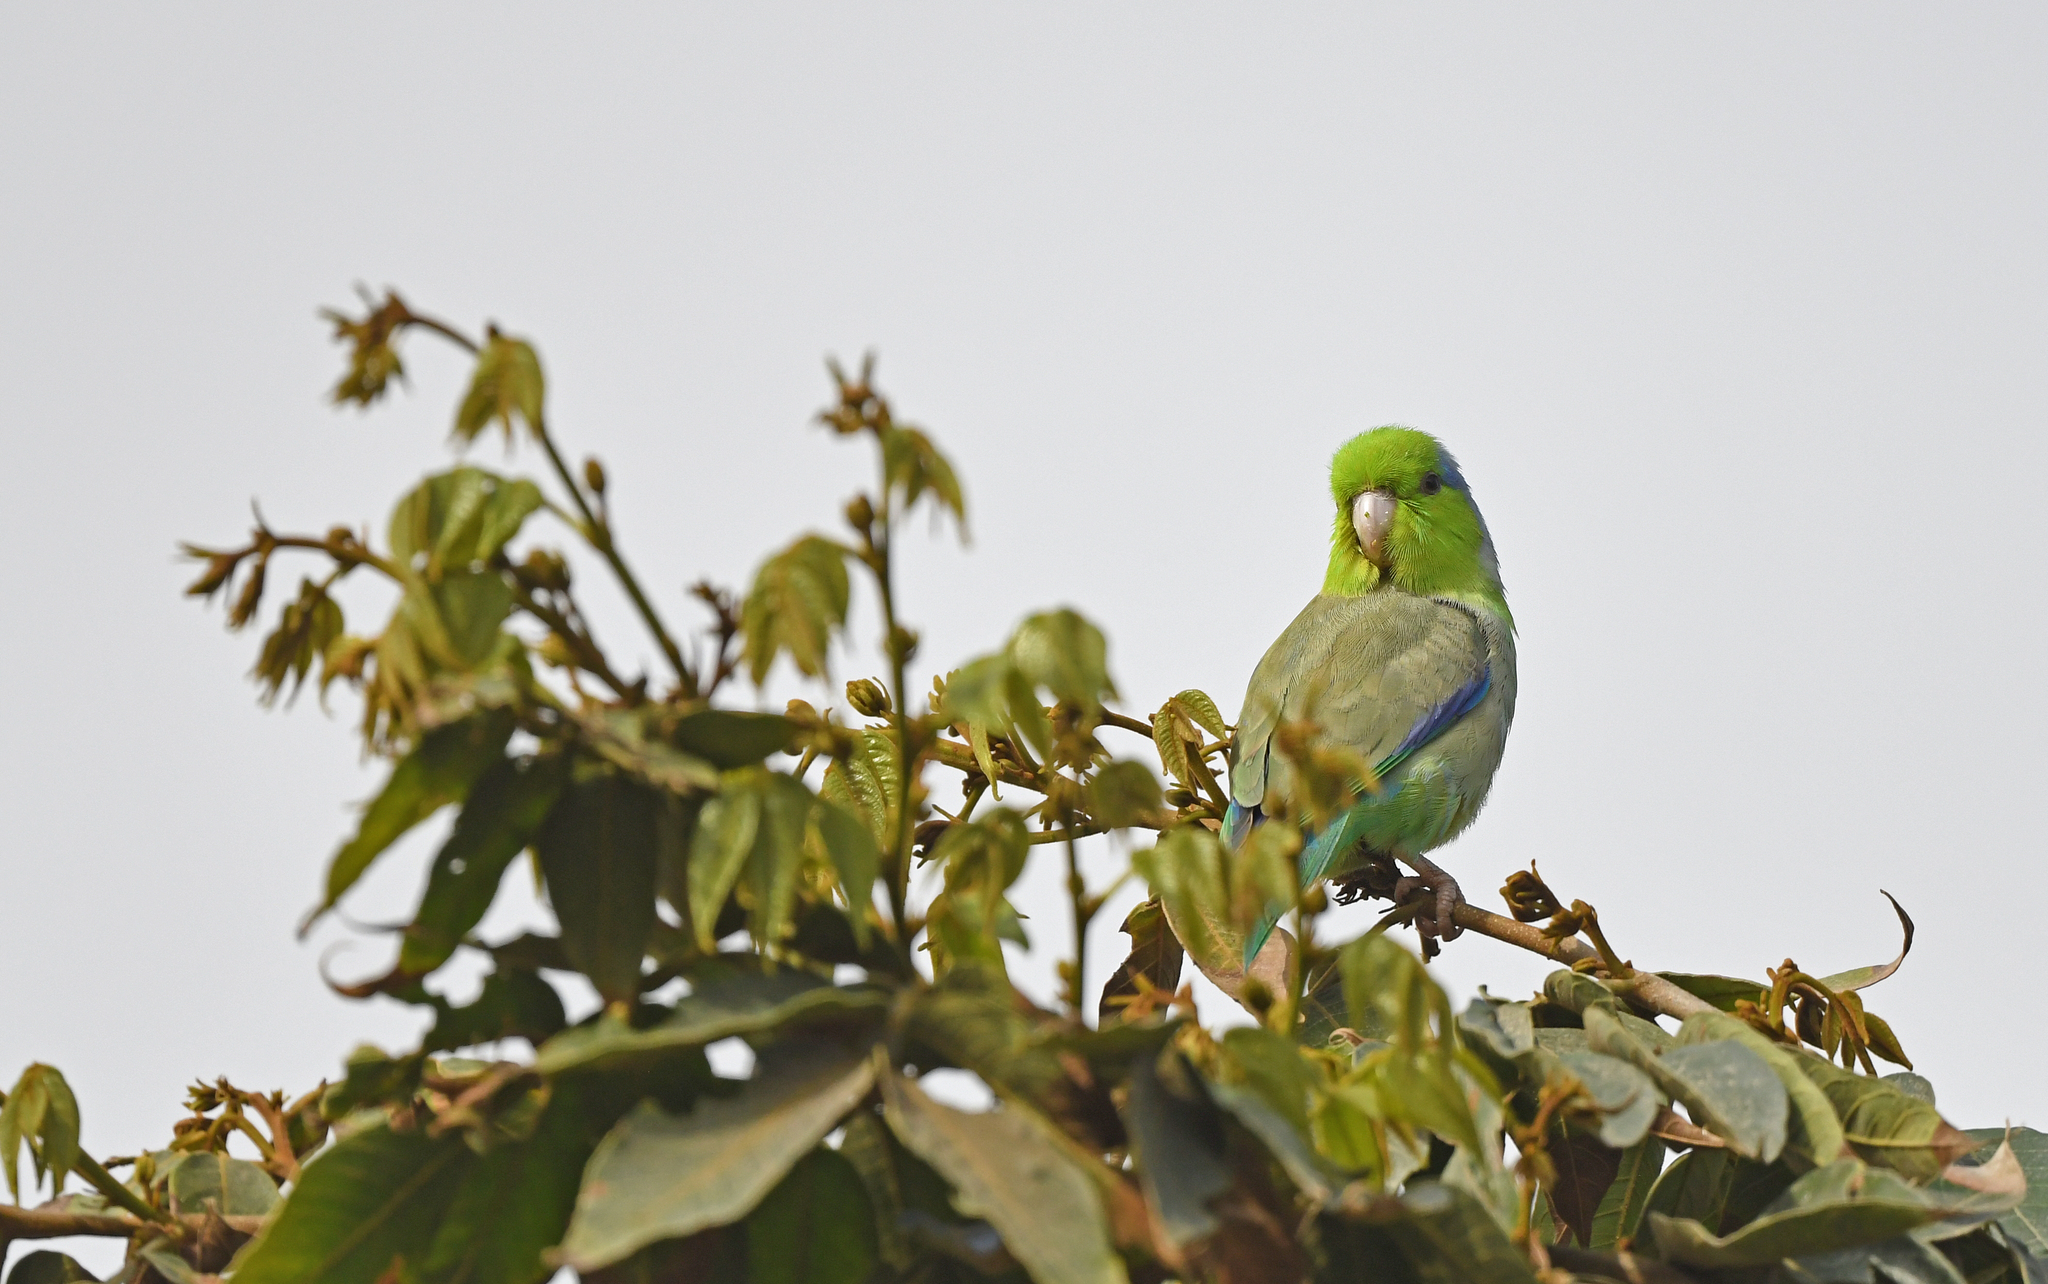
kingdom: Animalia
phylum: Chordata
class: Aves
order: Psittaciformes
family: Psittacidae
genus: Forpus
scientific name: Forpus coelestis
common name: Pacific parrotlet
